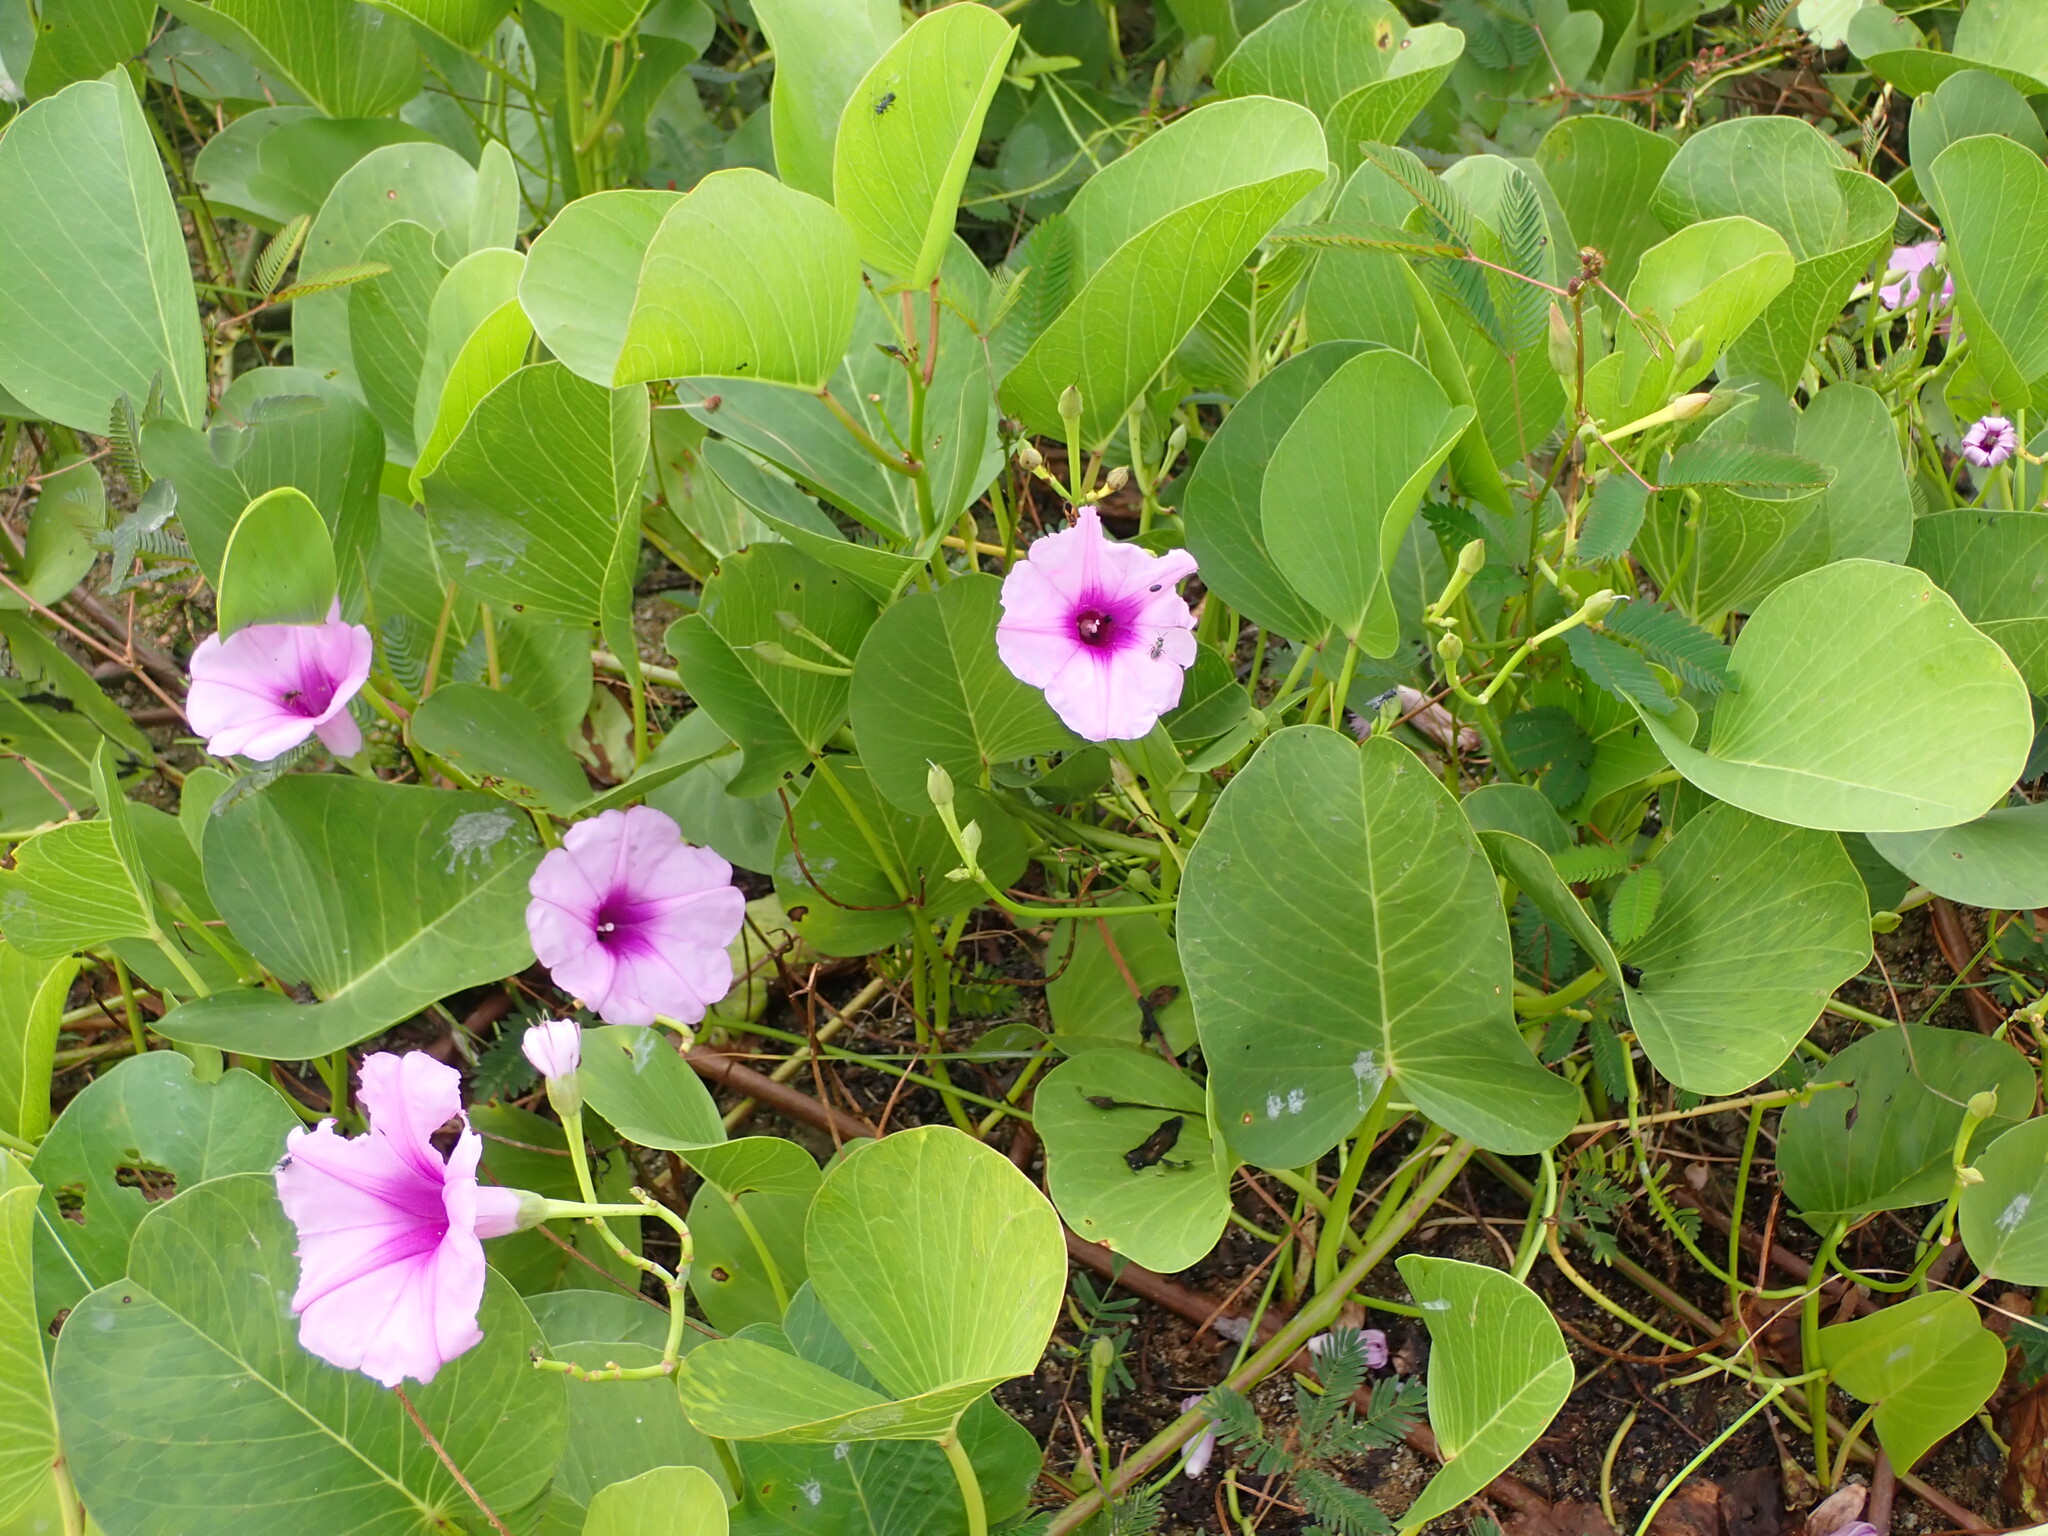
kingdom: Plantae
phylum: Tracheophyta
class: Magnoliopsida
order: Solanales
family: Convolvulaceae
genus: Ipomoea
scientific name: Ipomoea pes-caprae
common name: Beach morning glory
